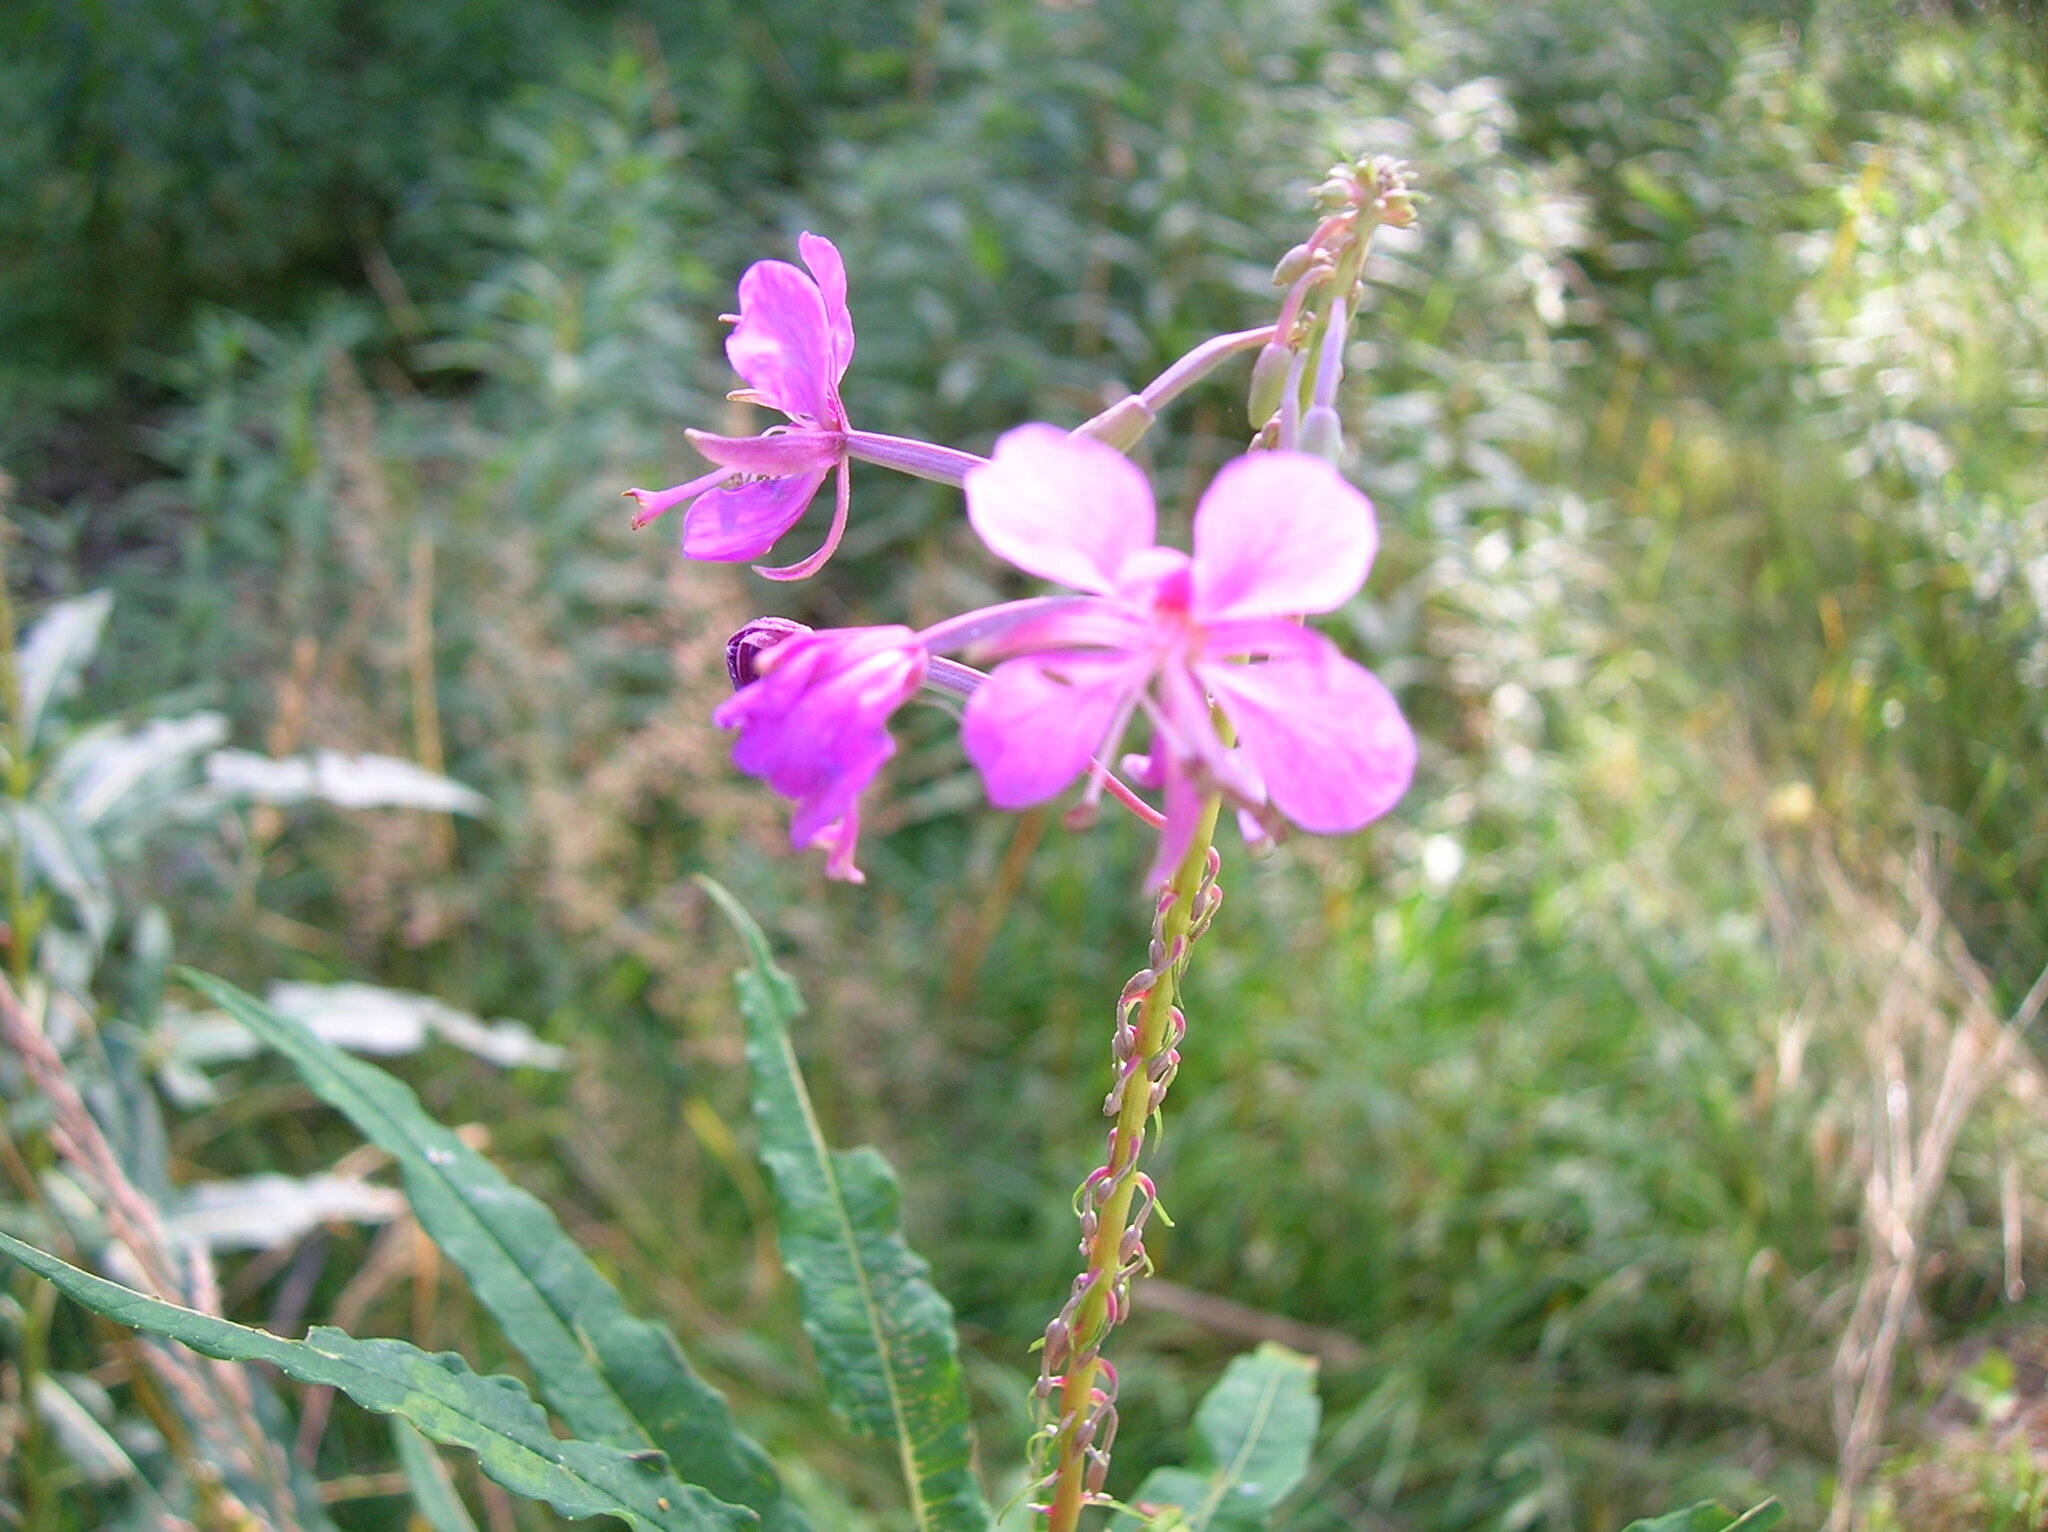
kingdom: Plantae
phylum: Tracheophyta
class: Magnoliopsida
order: Myrtales
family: Onagraceae
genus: Chamaenerion
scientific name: Chamaenerion angustifolium
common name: Fireweed
